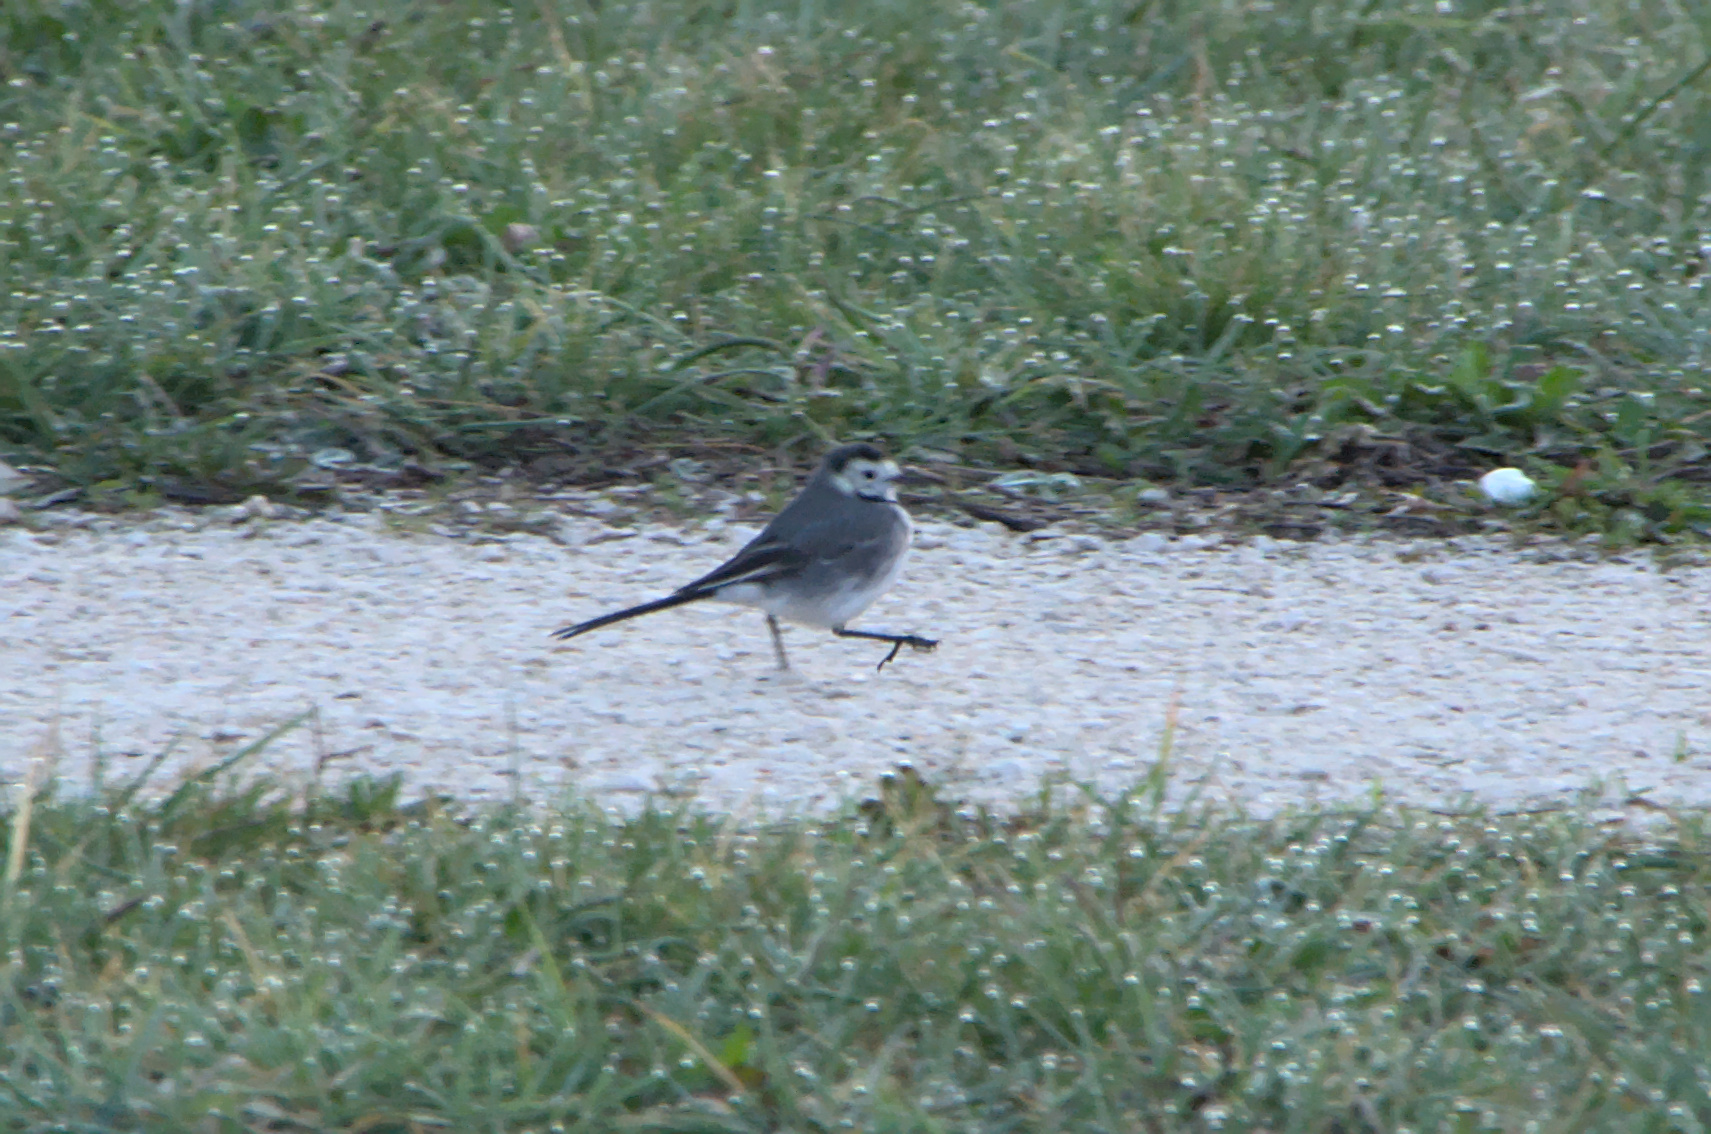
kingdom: Animalia
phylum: Chordata
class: Aves
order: Passeriformes
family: Motacillidae
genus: Motacilla
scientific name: Motacilla alba
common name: White wagtail
